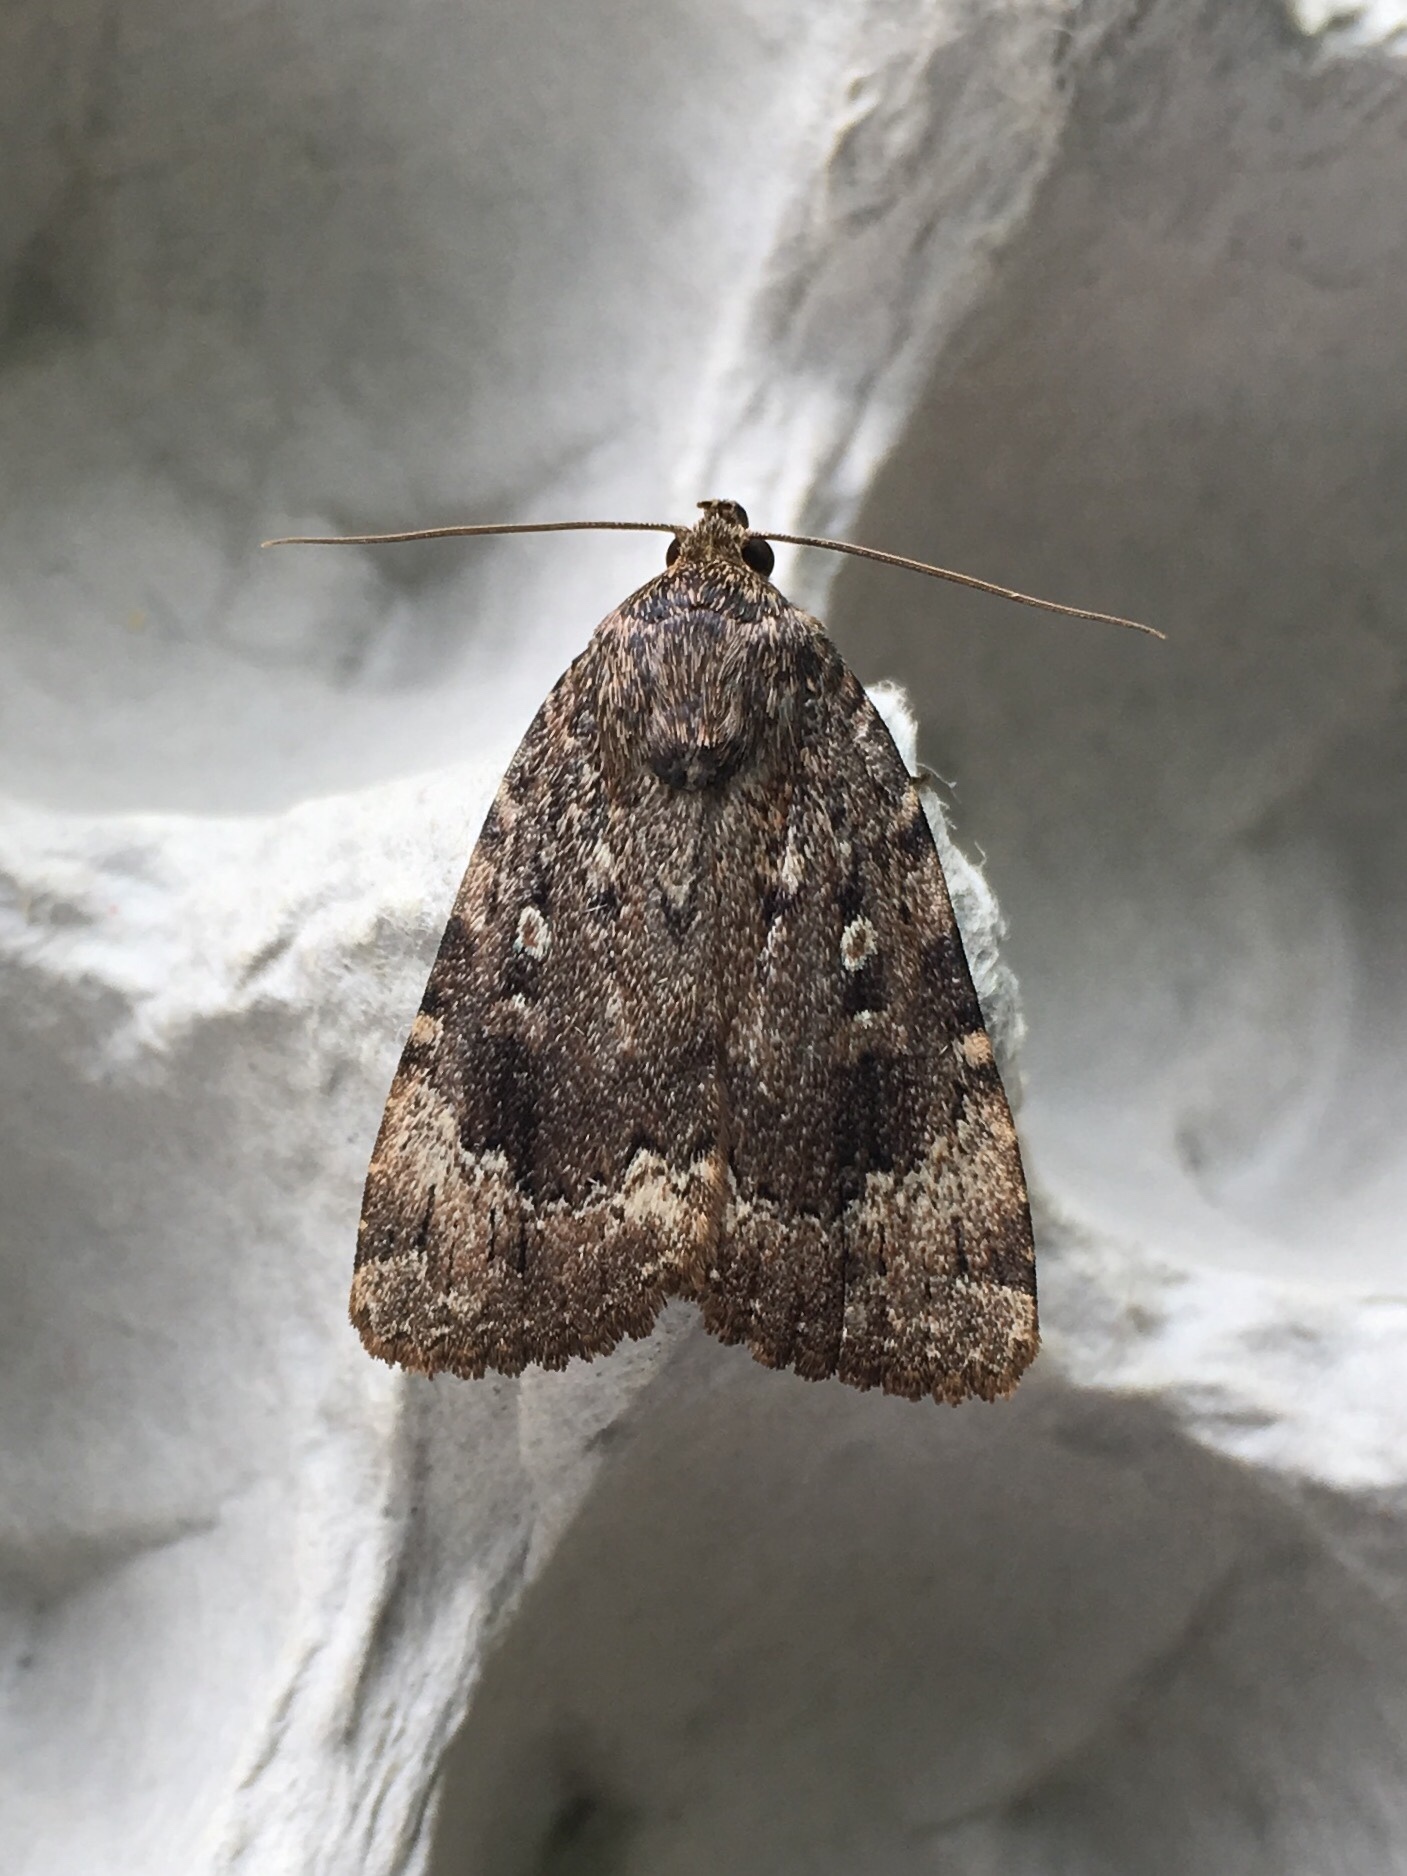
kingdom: Animalia
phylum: Arthropoda
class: Insecta
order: Lepidoptera
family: Noctuidae
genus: Amphipyra
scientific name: Amphipyra pyramidoides
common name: American copper underwing
